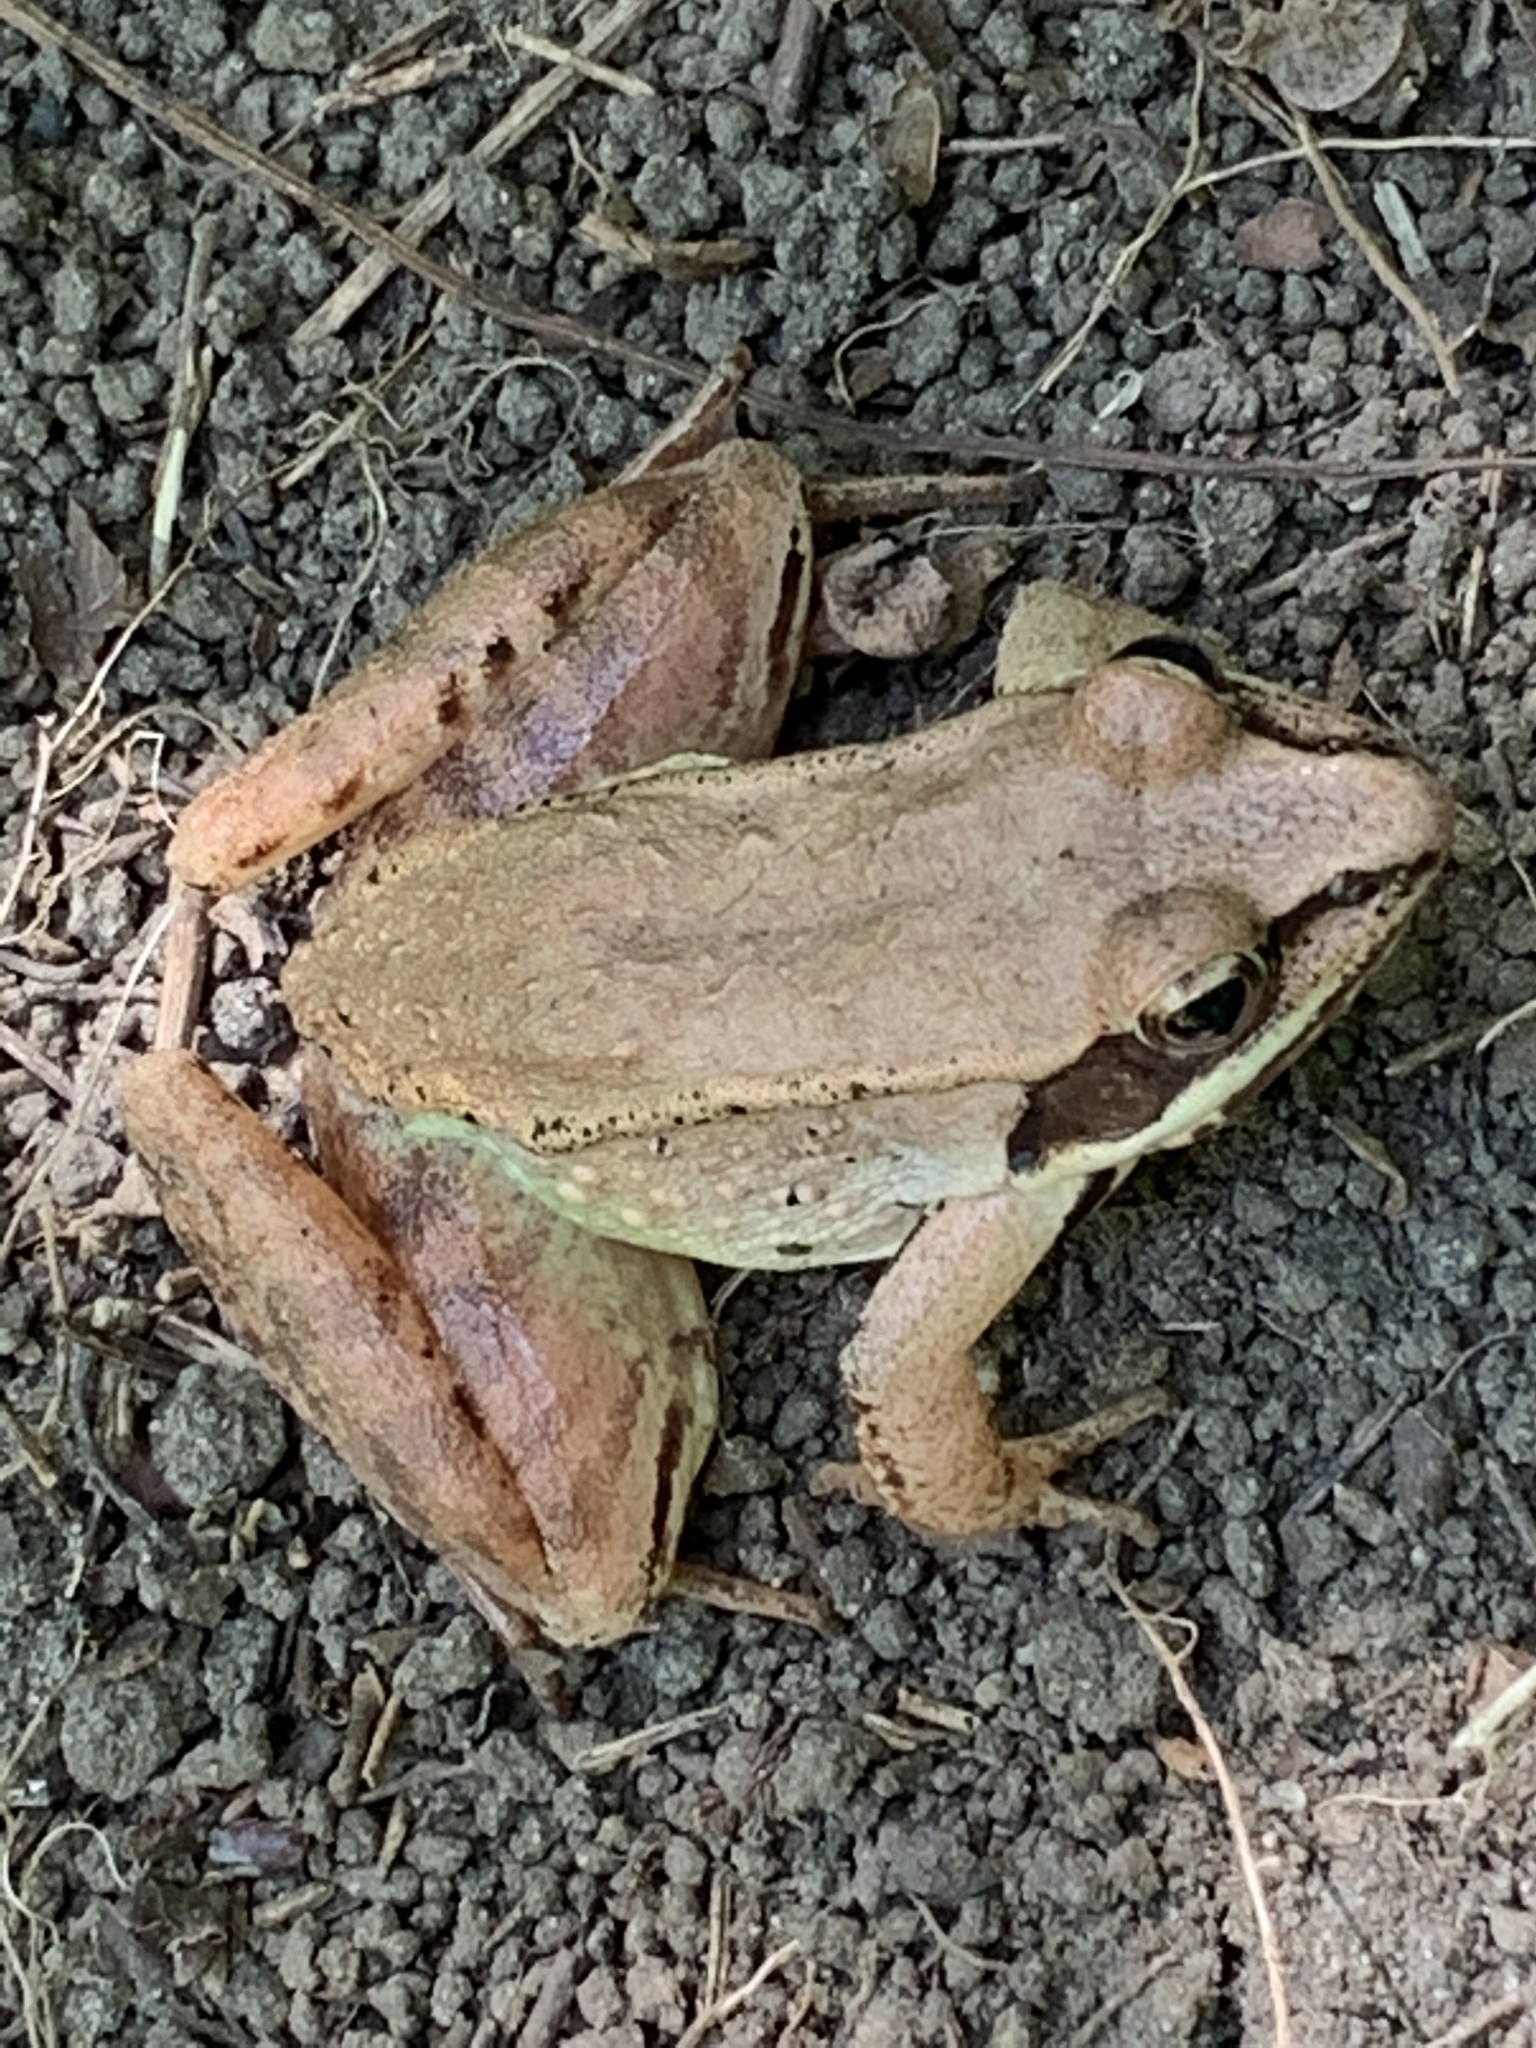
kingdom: Animalia
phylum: Chordata
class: Amphibia
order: Anura
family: Ranidae
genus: Lithobates
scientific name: Lithobates sylvaticus
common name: Wood frog
